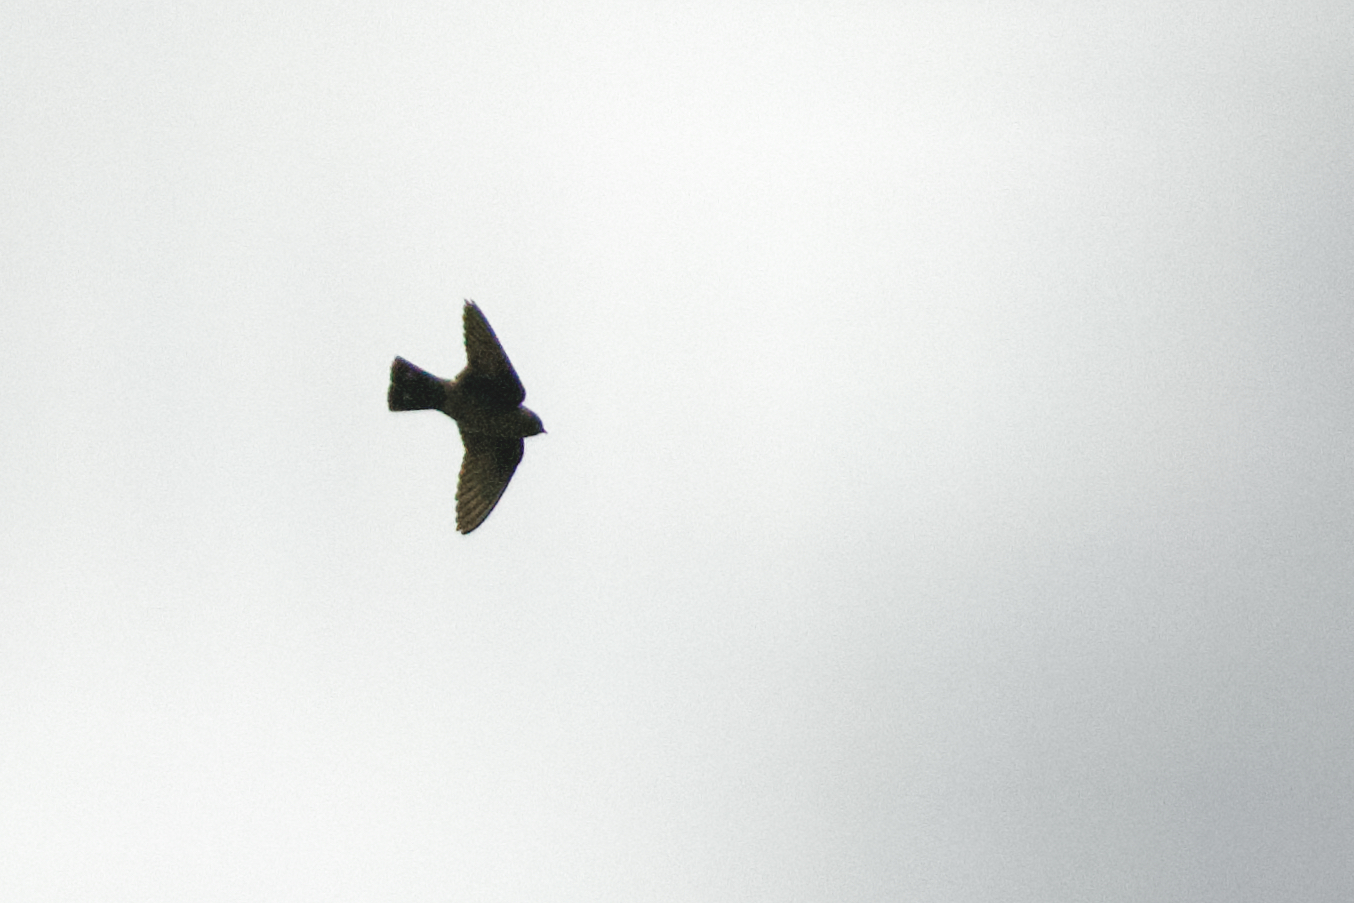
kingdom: Animalia
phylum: Chordata
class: Aves
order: Passeriformes
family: Hirundinidae
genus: Ptyonoprogne
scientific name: Ptyonoprogne rupestris
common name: Eurasian crag martin
